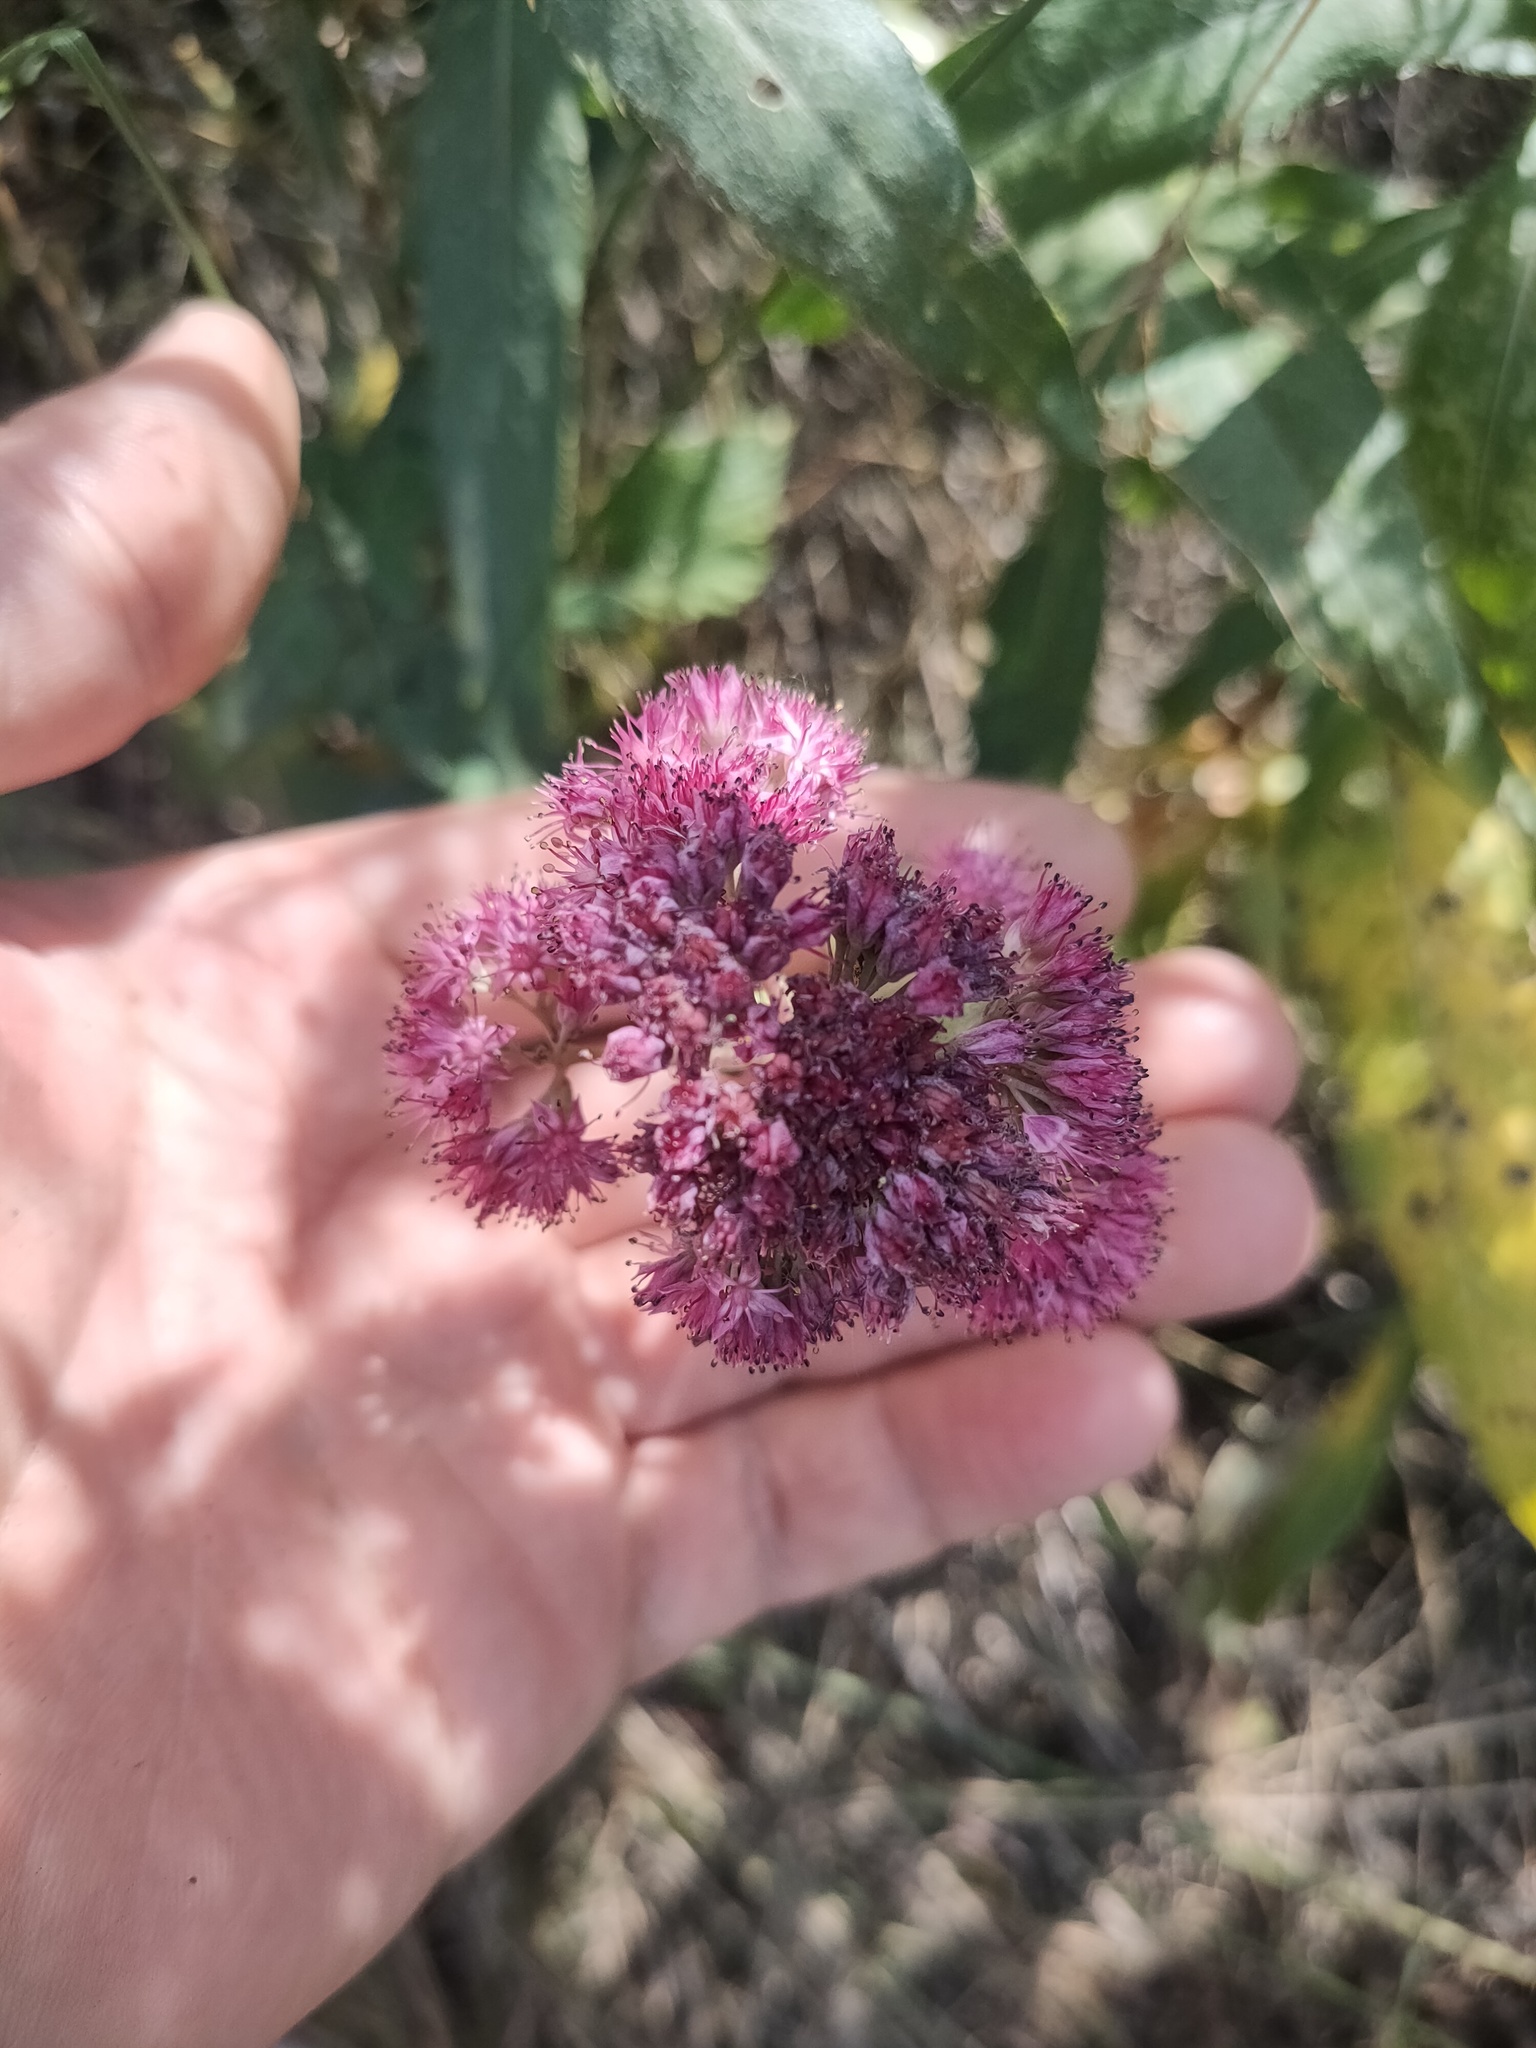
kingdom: Plantae
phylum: Tracheophyta
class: Magnoliopsida
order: Saxifragales
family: Crassulaceae
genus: Hylotelephium
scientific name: Hylotelephium telephium
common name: Live-forever
